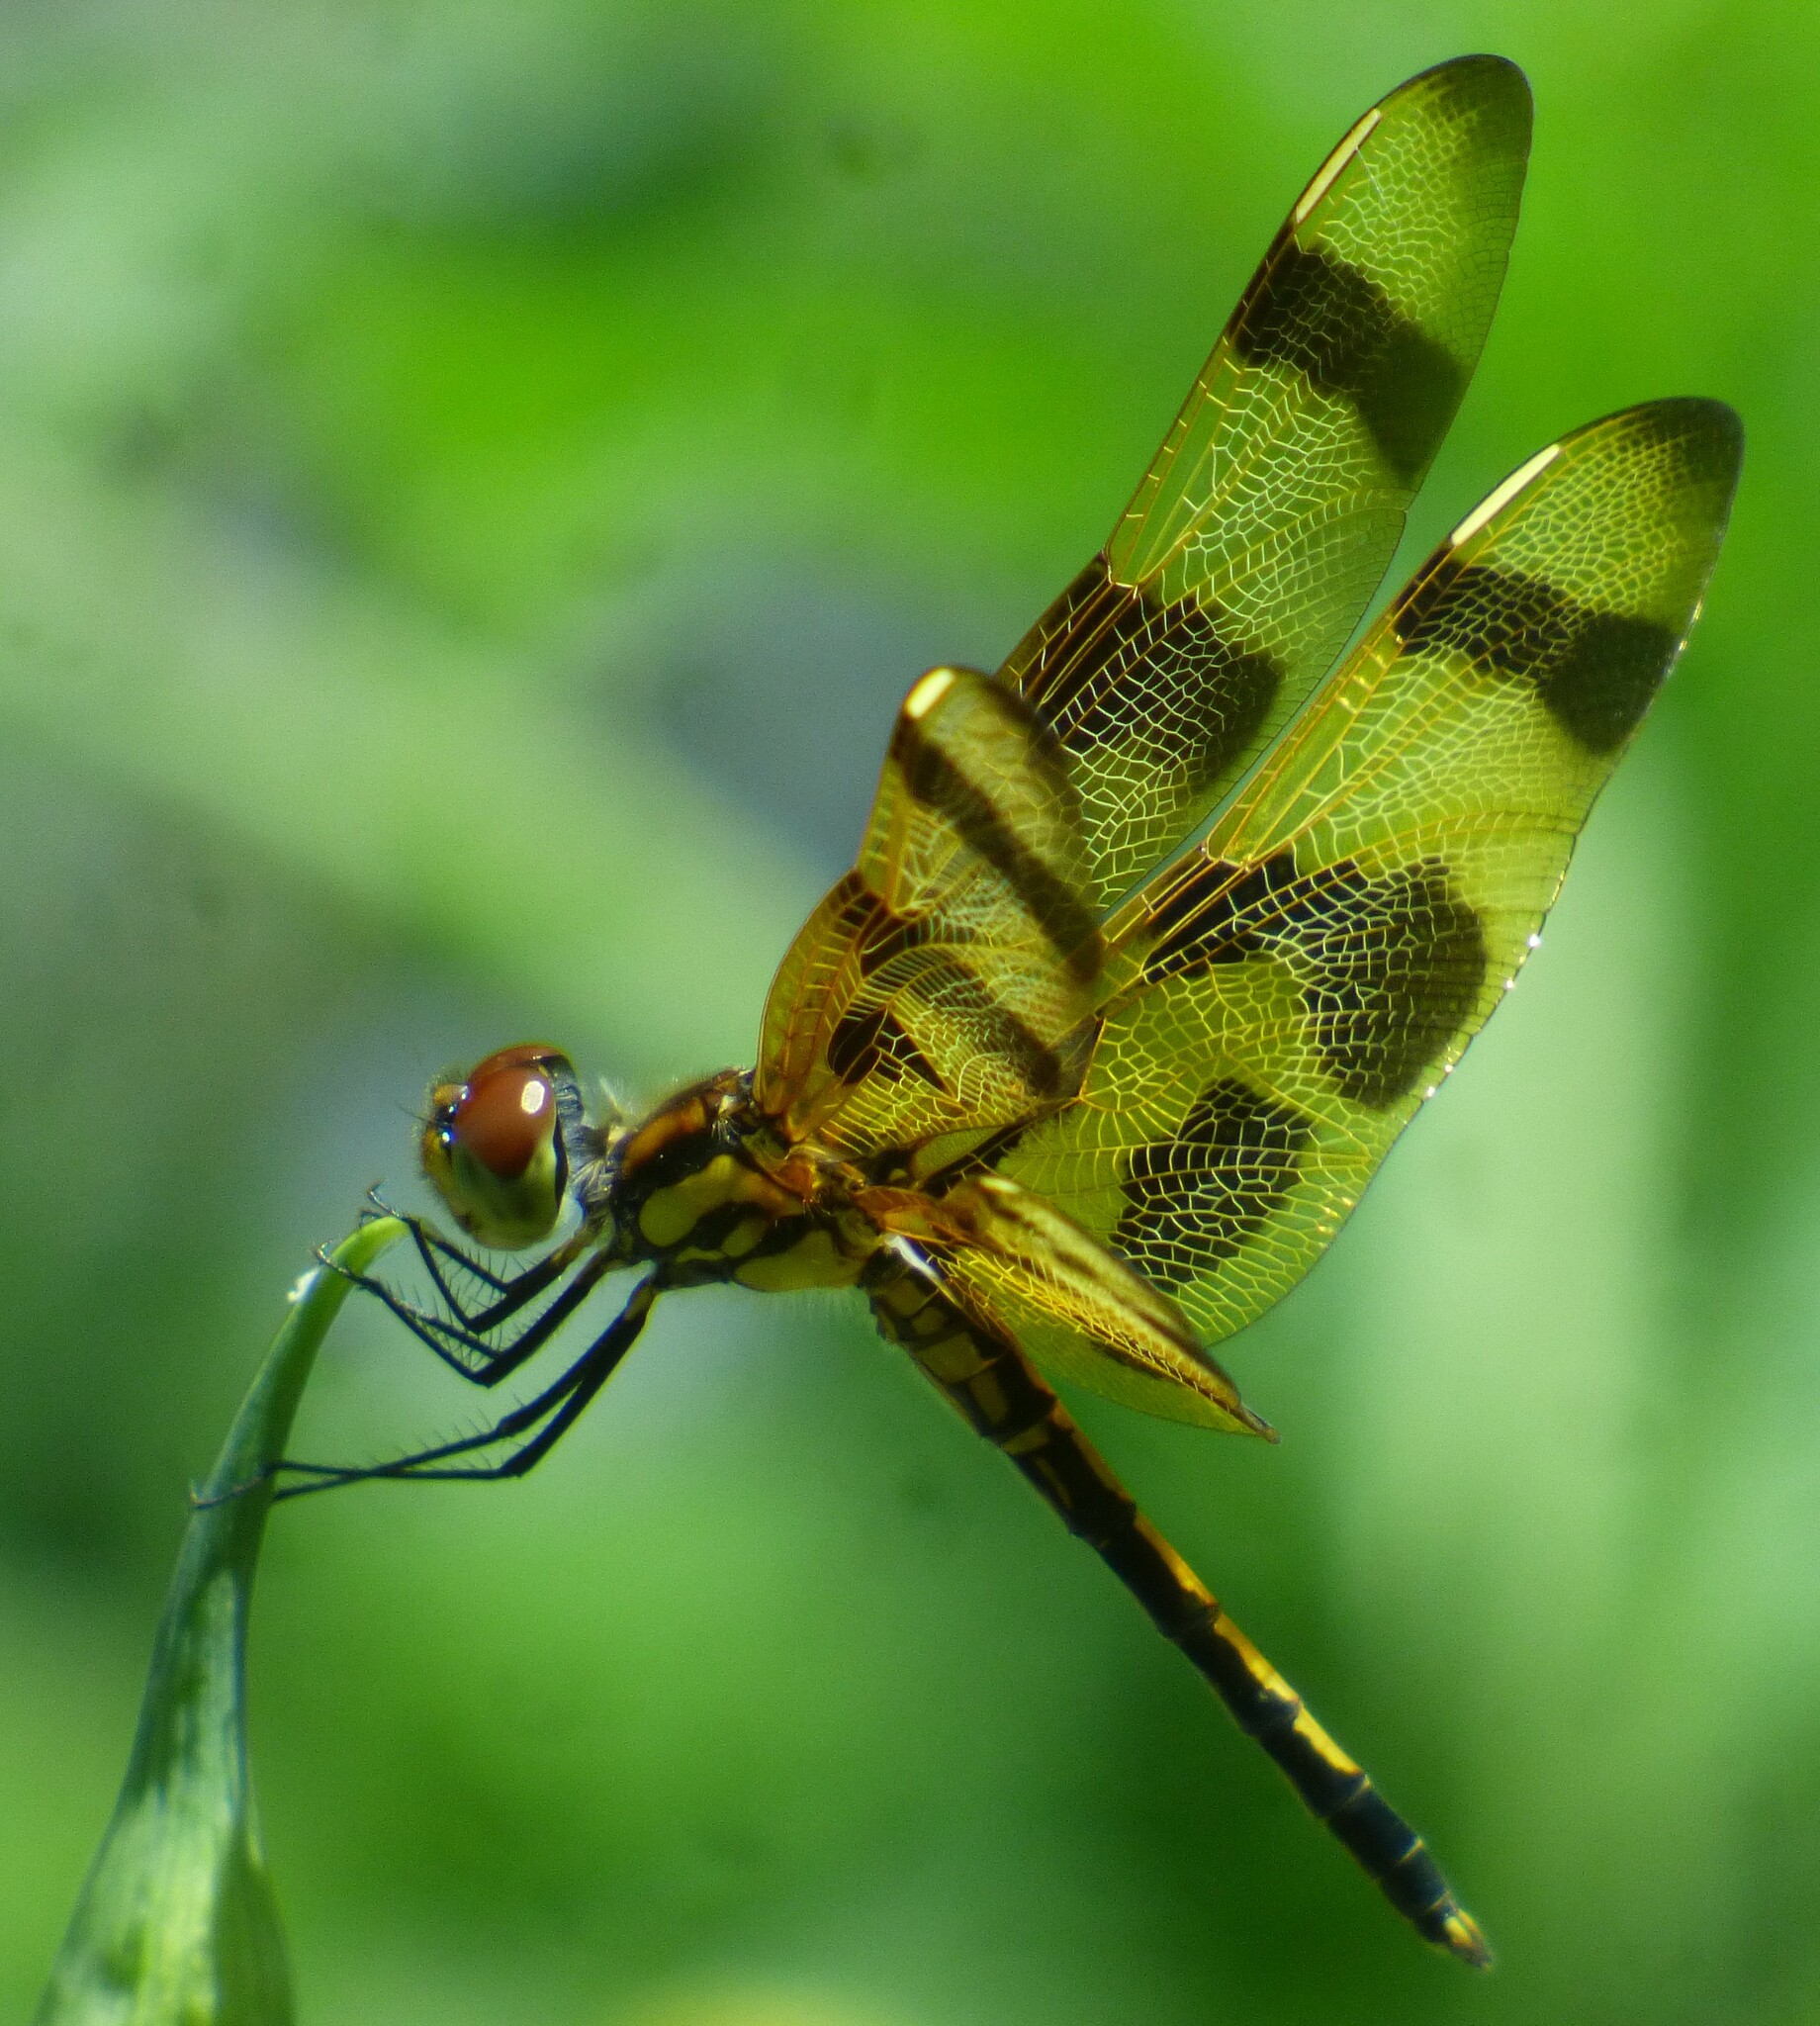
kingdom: Animalia
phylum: Arthropoda
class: Insecta
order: Odonata
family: Libellulidae
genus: Celithemis
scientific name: Celithemis eponina
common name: Halloween pennant
